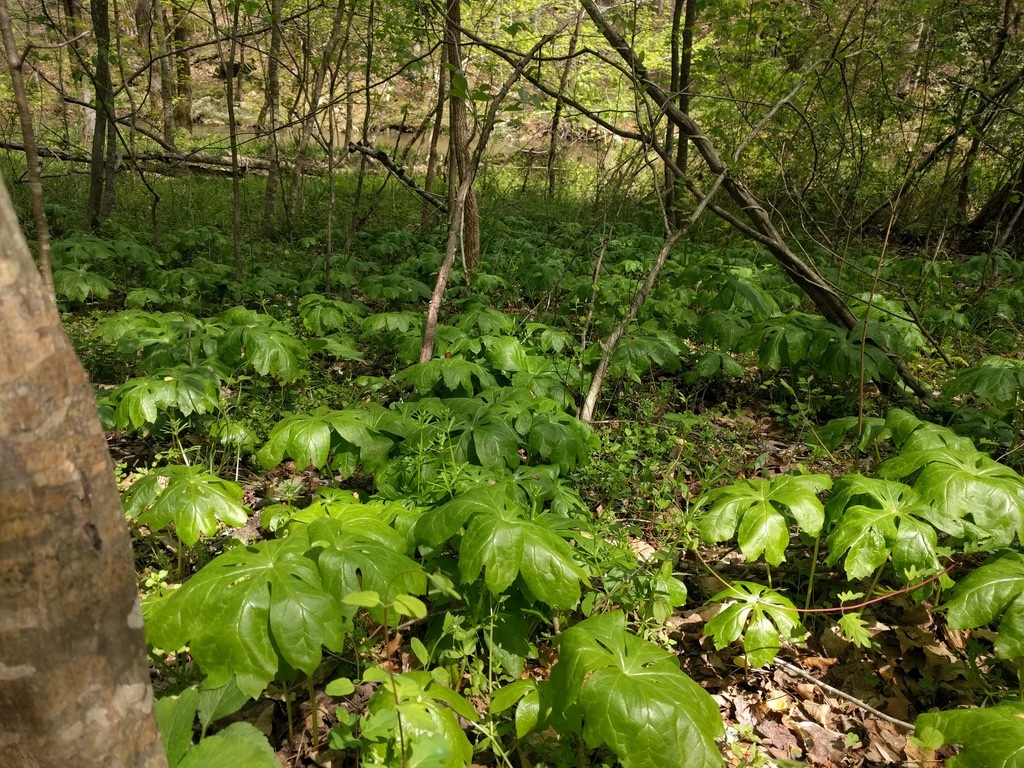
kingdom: Plantae
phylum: Tracheophyta
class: Magnoliopsida
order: Ranunculales
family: Berberidaceae
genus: Podophyllum
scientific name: Podophyllum peltatum
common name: Wild mandrake
